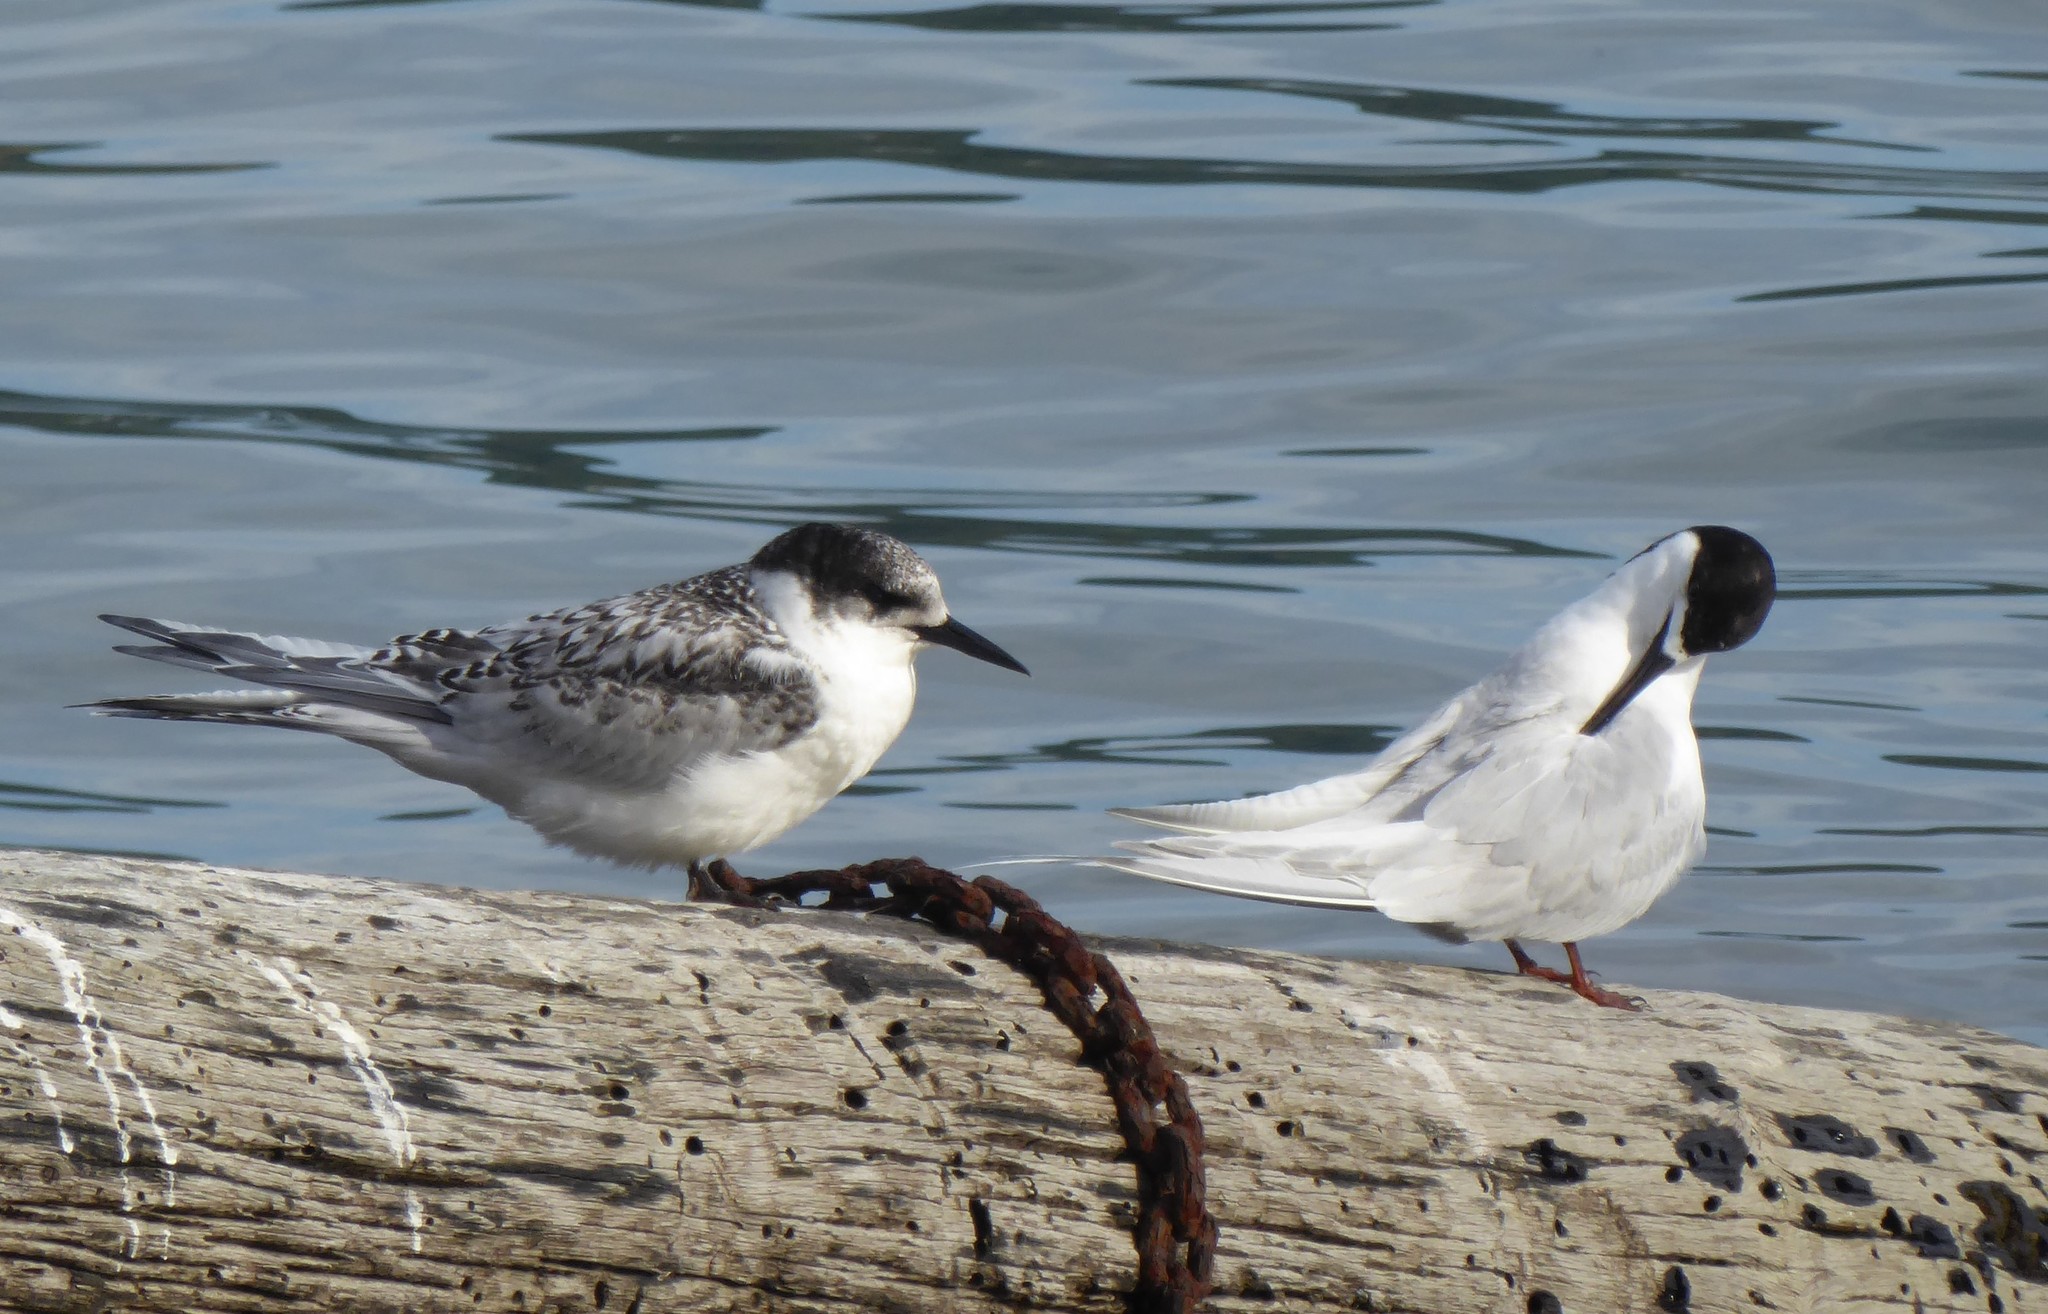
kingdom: Animalia
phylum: Chordata
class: Aves
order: Charadriiformes
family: Laridae
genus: Sterna
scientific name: Sterna striata
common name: White-fronted tern
